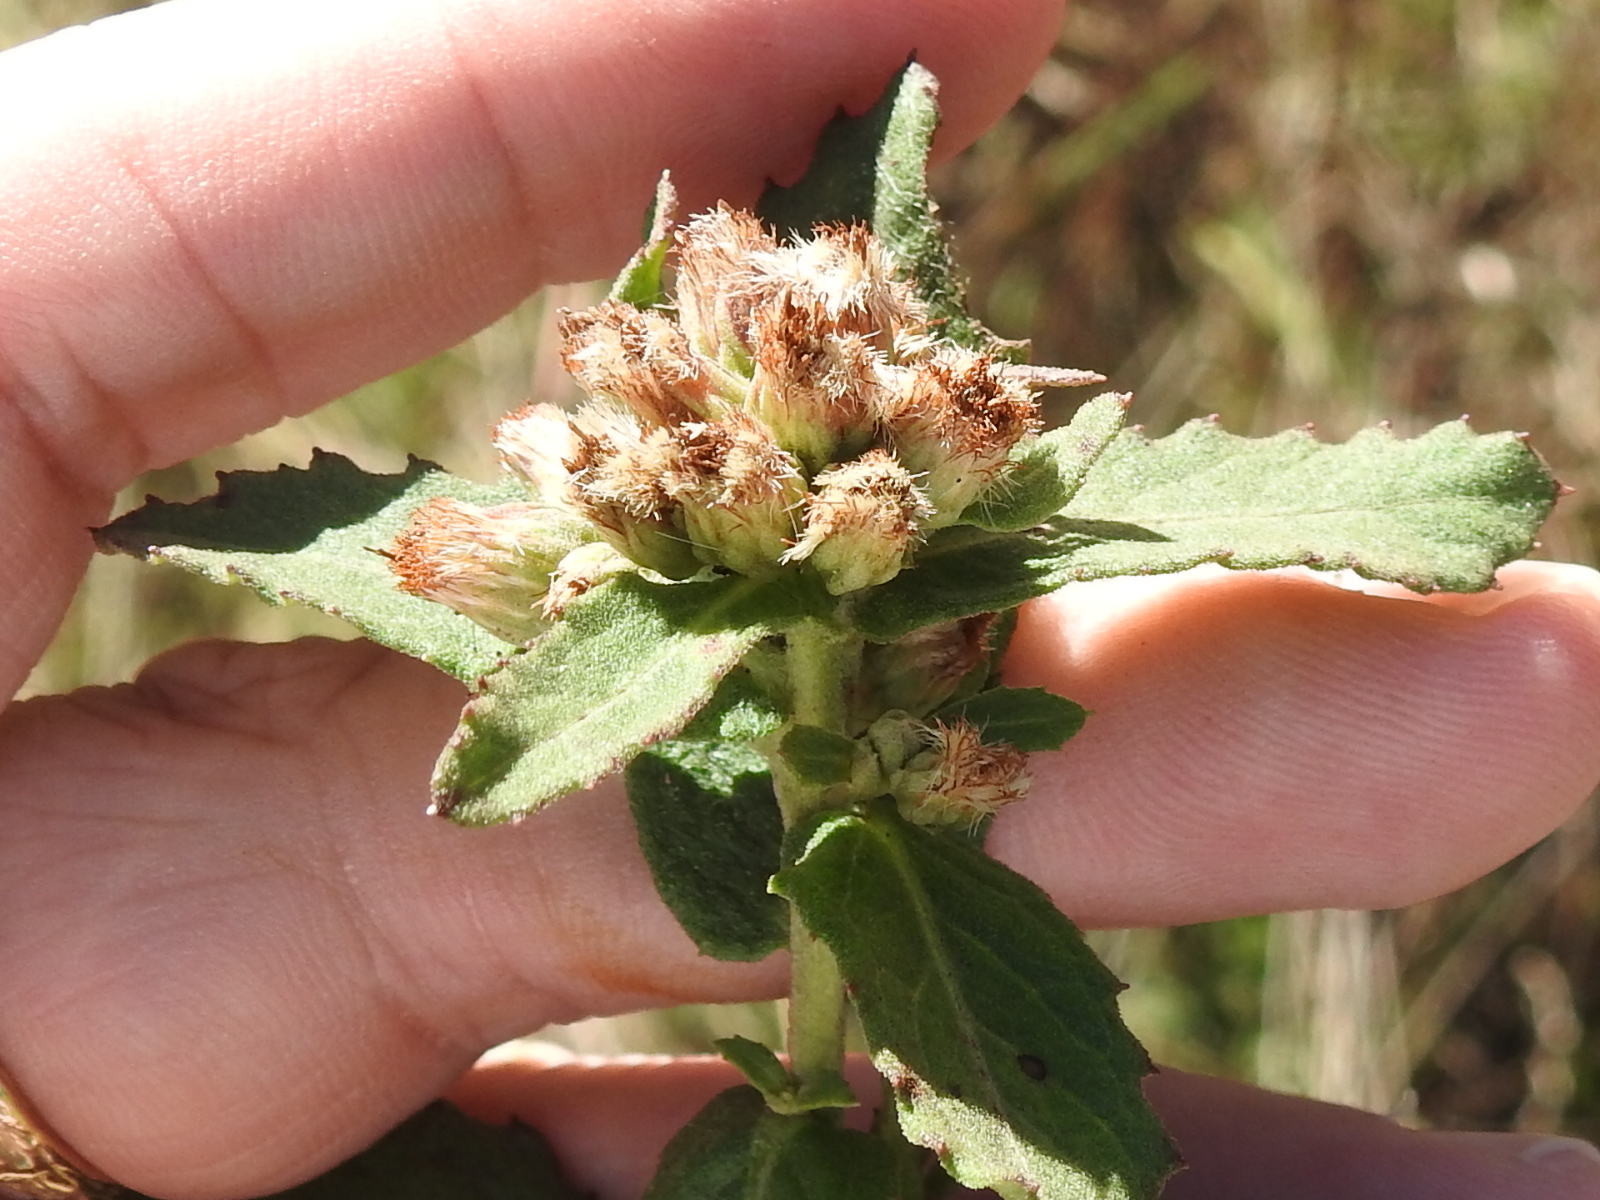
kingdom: Plantae
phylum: Tracheophyta
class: Magnoliopsida
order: Asterales
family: Asteraceae
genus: Pluchea
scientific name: Pluchea foetida
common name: Stinking camphorweed
